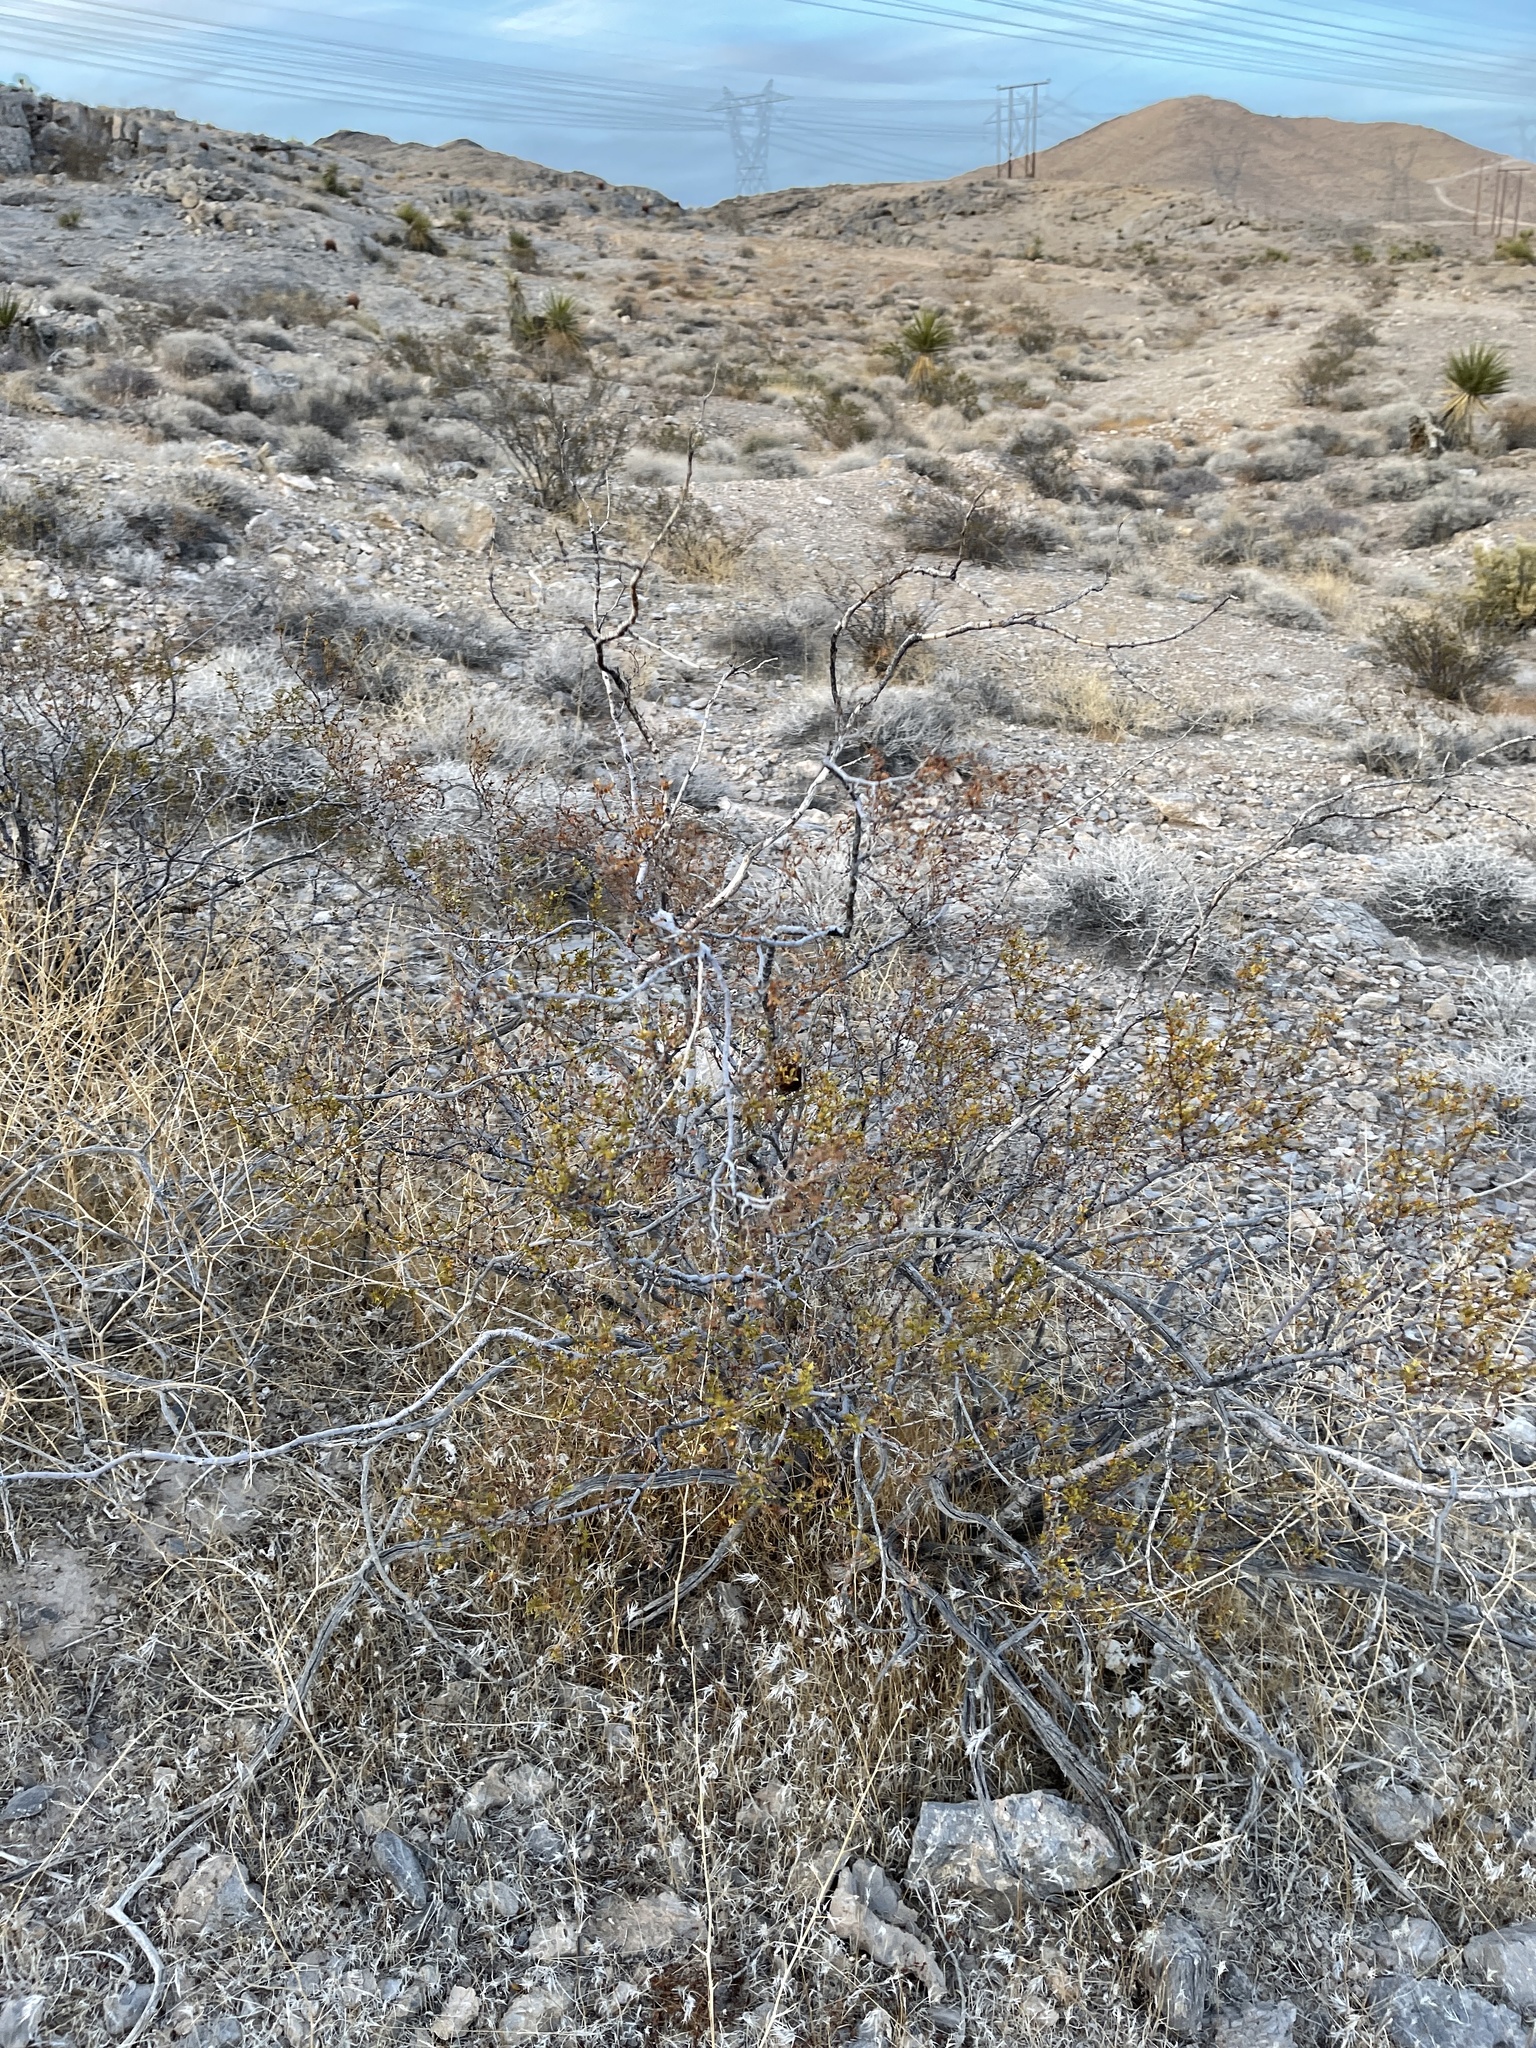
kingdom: Plantae
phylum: Tracheophyta
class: Magnoliopsida
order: Zygophyllales
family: Zygophyllaceae
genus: Larrea
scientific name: Larrea tridentata
